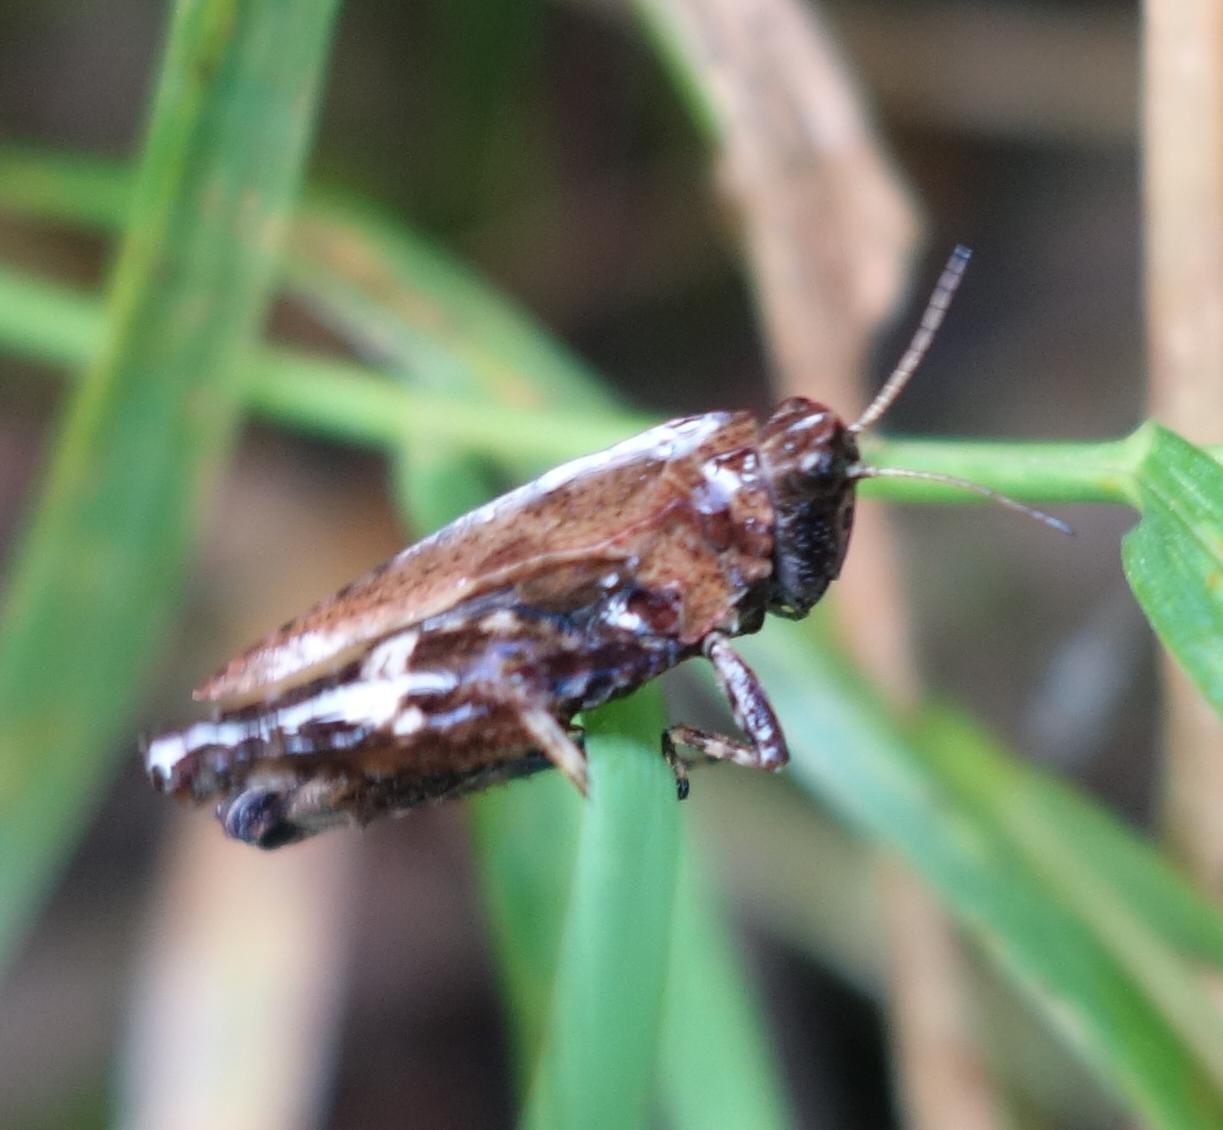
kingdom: Animalia
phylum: Arthropoda
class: Insecta
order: Orthoptera
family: Tetrigidae
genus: Tetrix
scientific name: Tetrix undulata
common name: Common groundhopper
